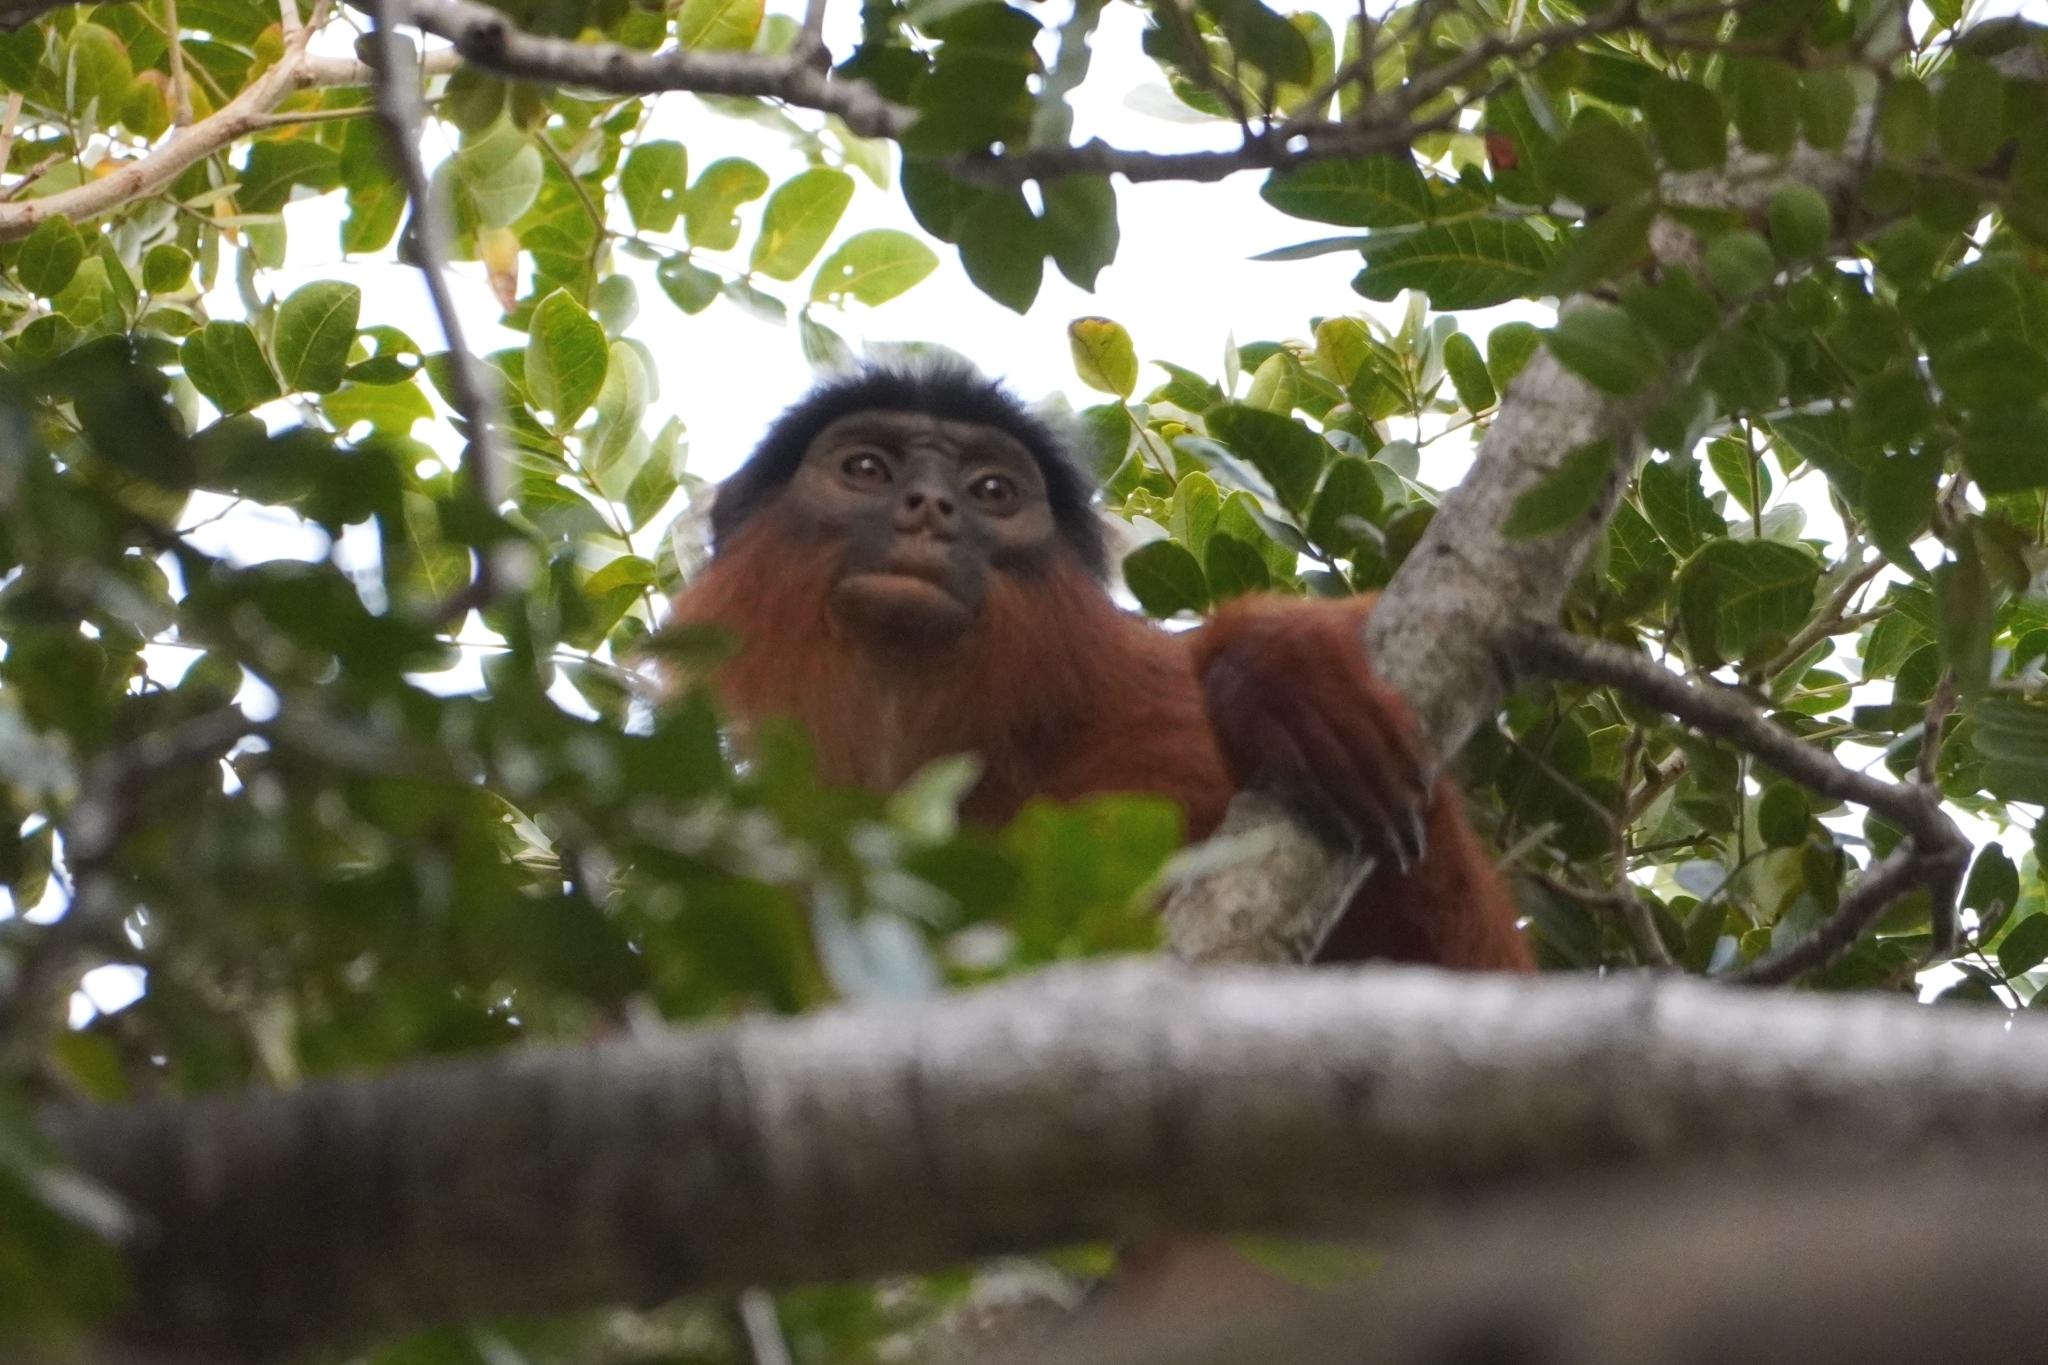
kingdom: Animalia
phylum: Chordata
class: Mammalia
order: Primates
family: Cercopithecidae
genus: Piliocolobus
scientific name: Piliocolobus badius
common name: Western red colobus
